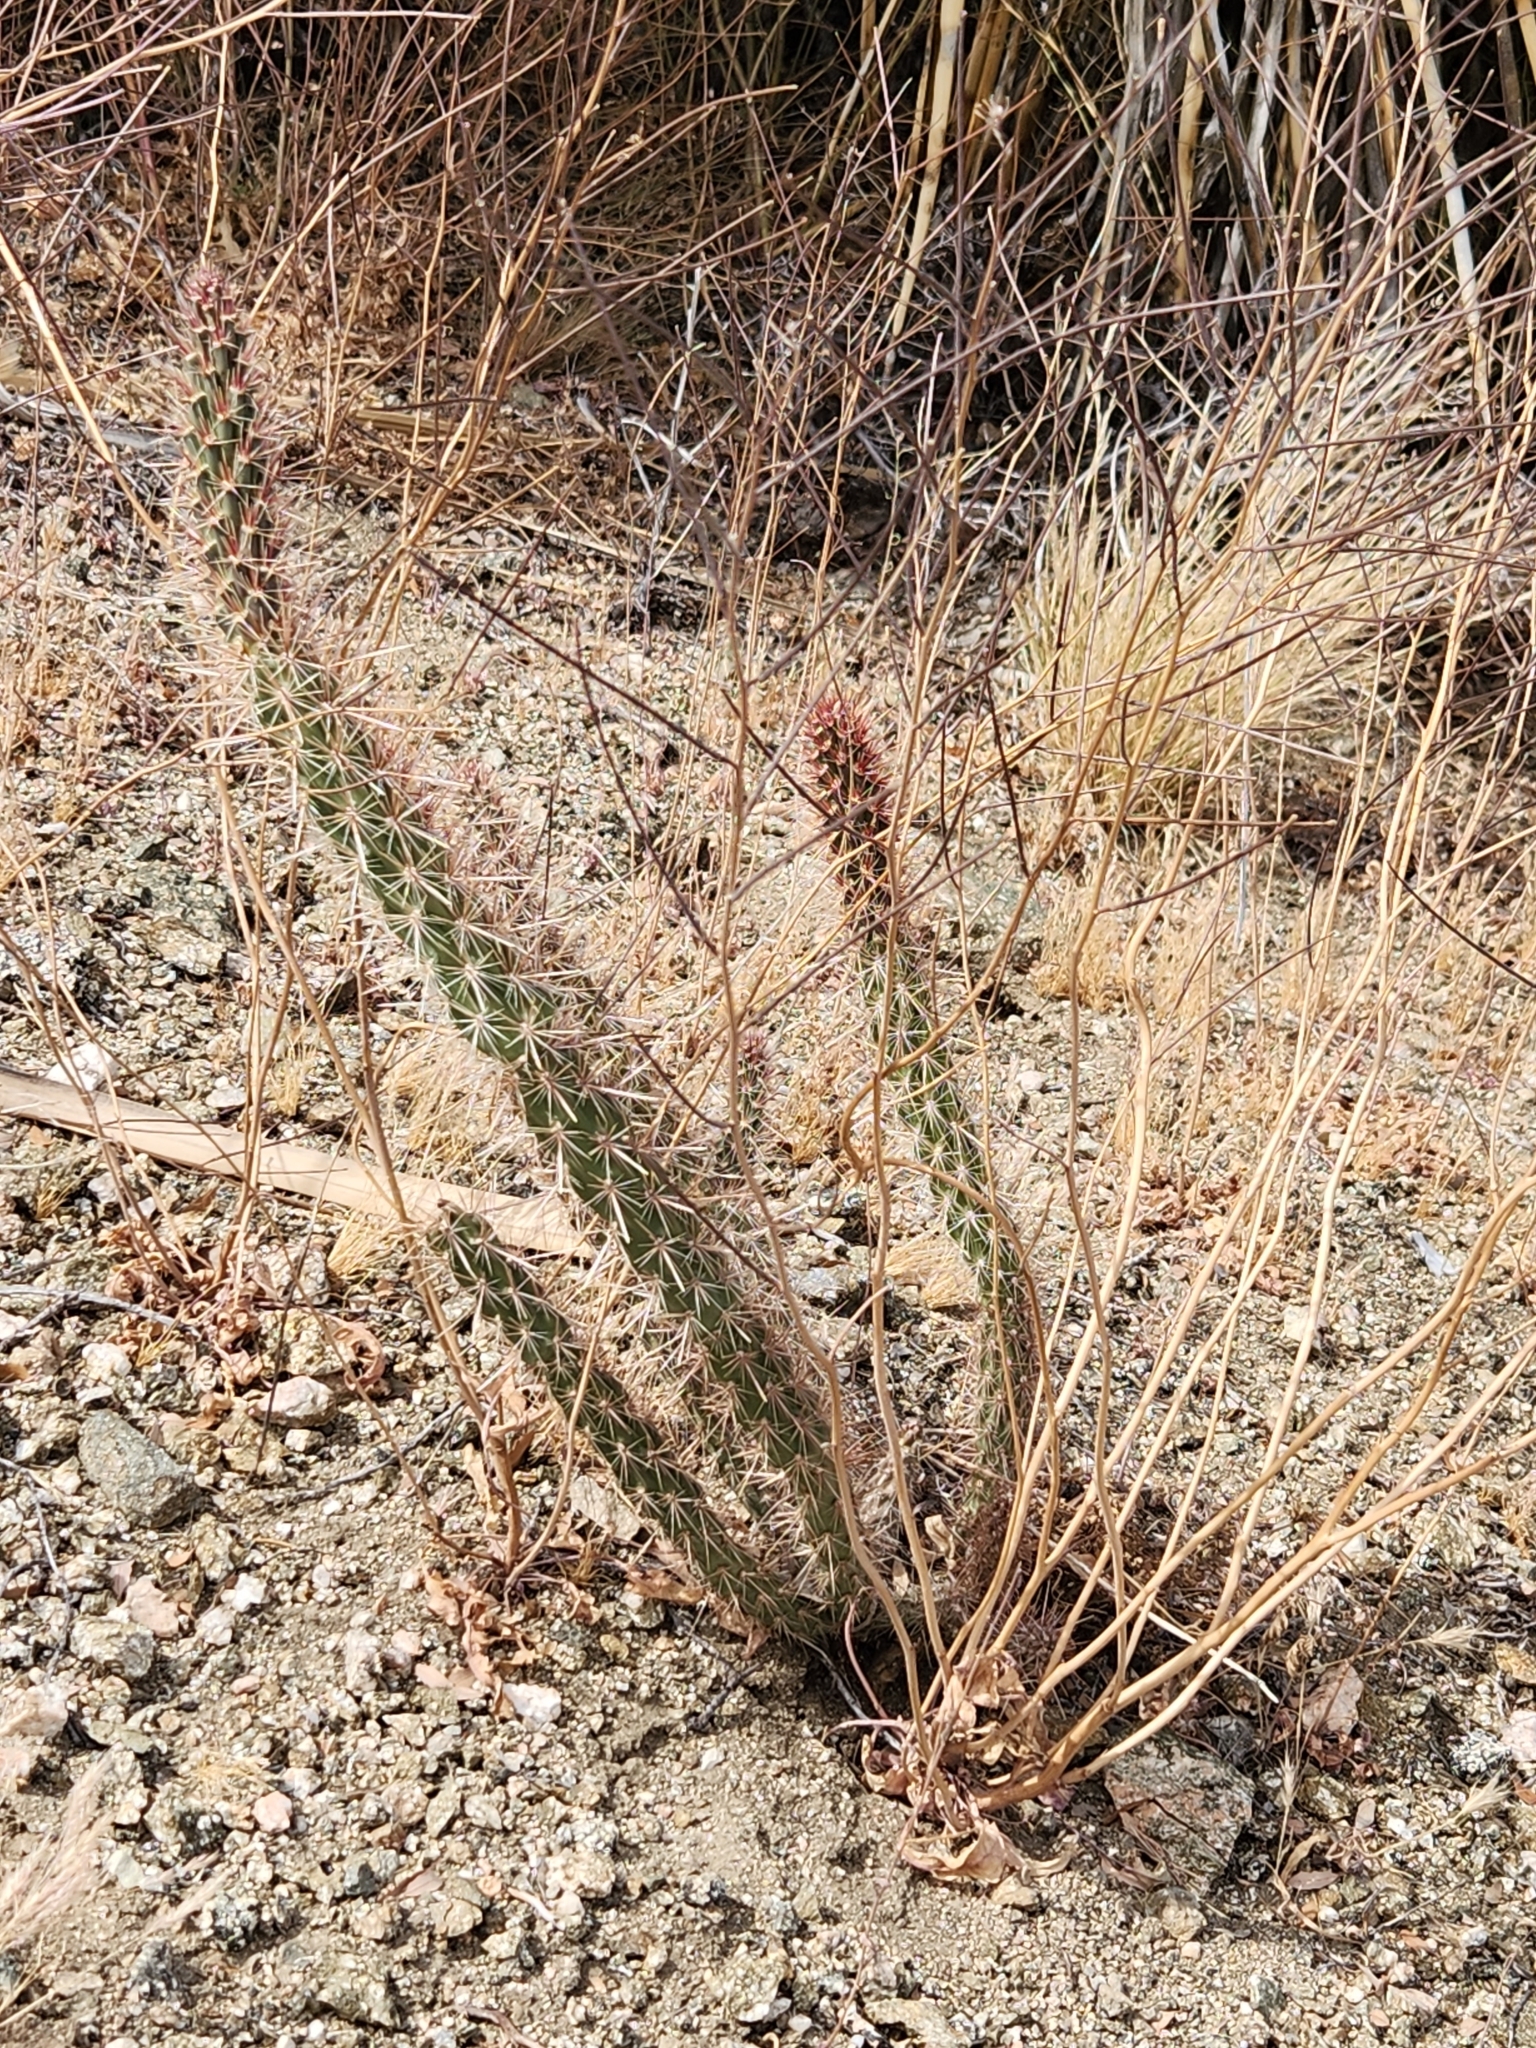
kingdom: Plantae
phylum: Tracheophyta
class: Magnoliopsida
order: Caryophyllales
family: Cactaceae
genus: Cylindropuntia
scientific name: Cylindropuntia ganderi
